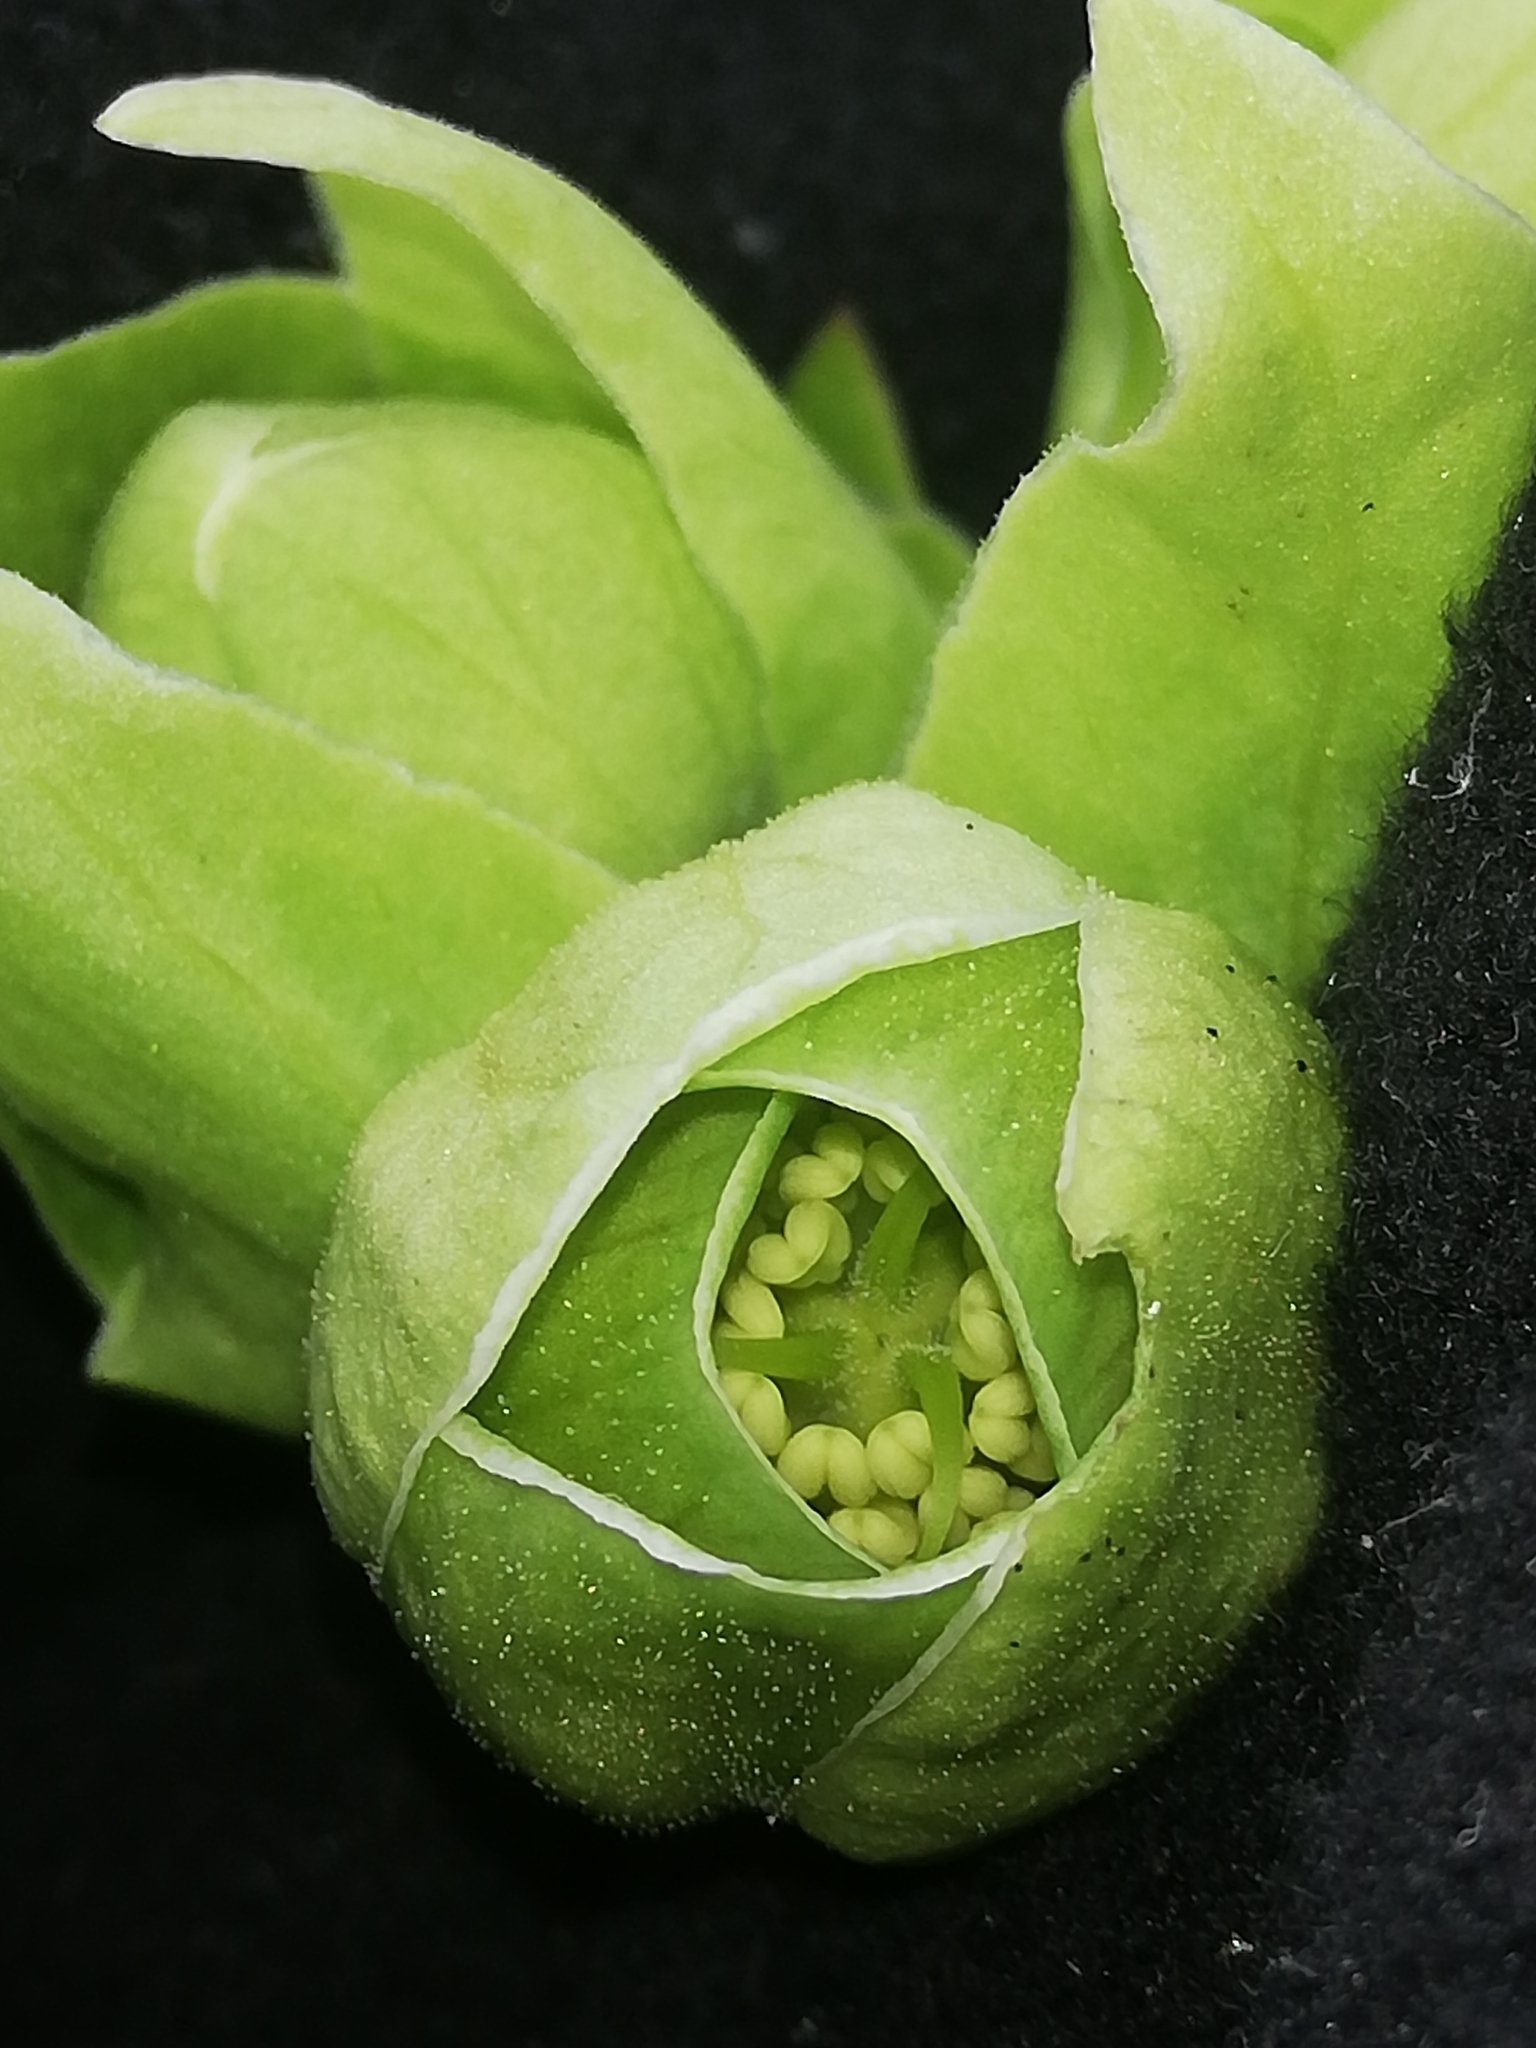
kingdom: Plantae
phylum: Tracheophyta
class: Magnoliopsida
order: Ranunculales
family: Ranunculaceae
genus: Helleborus
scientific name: Helleborus foetidus
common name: Stinking hellebore
